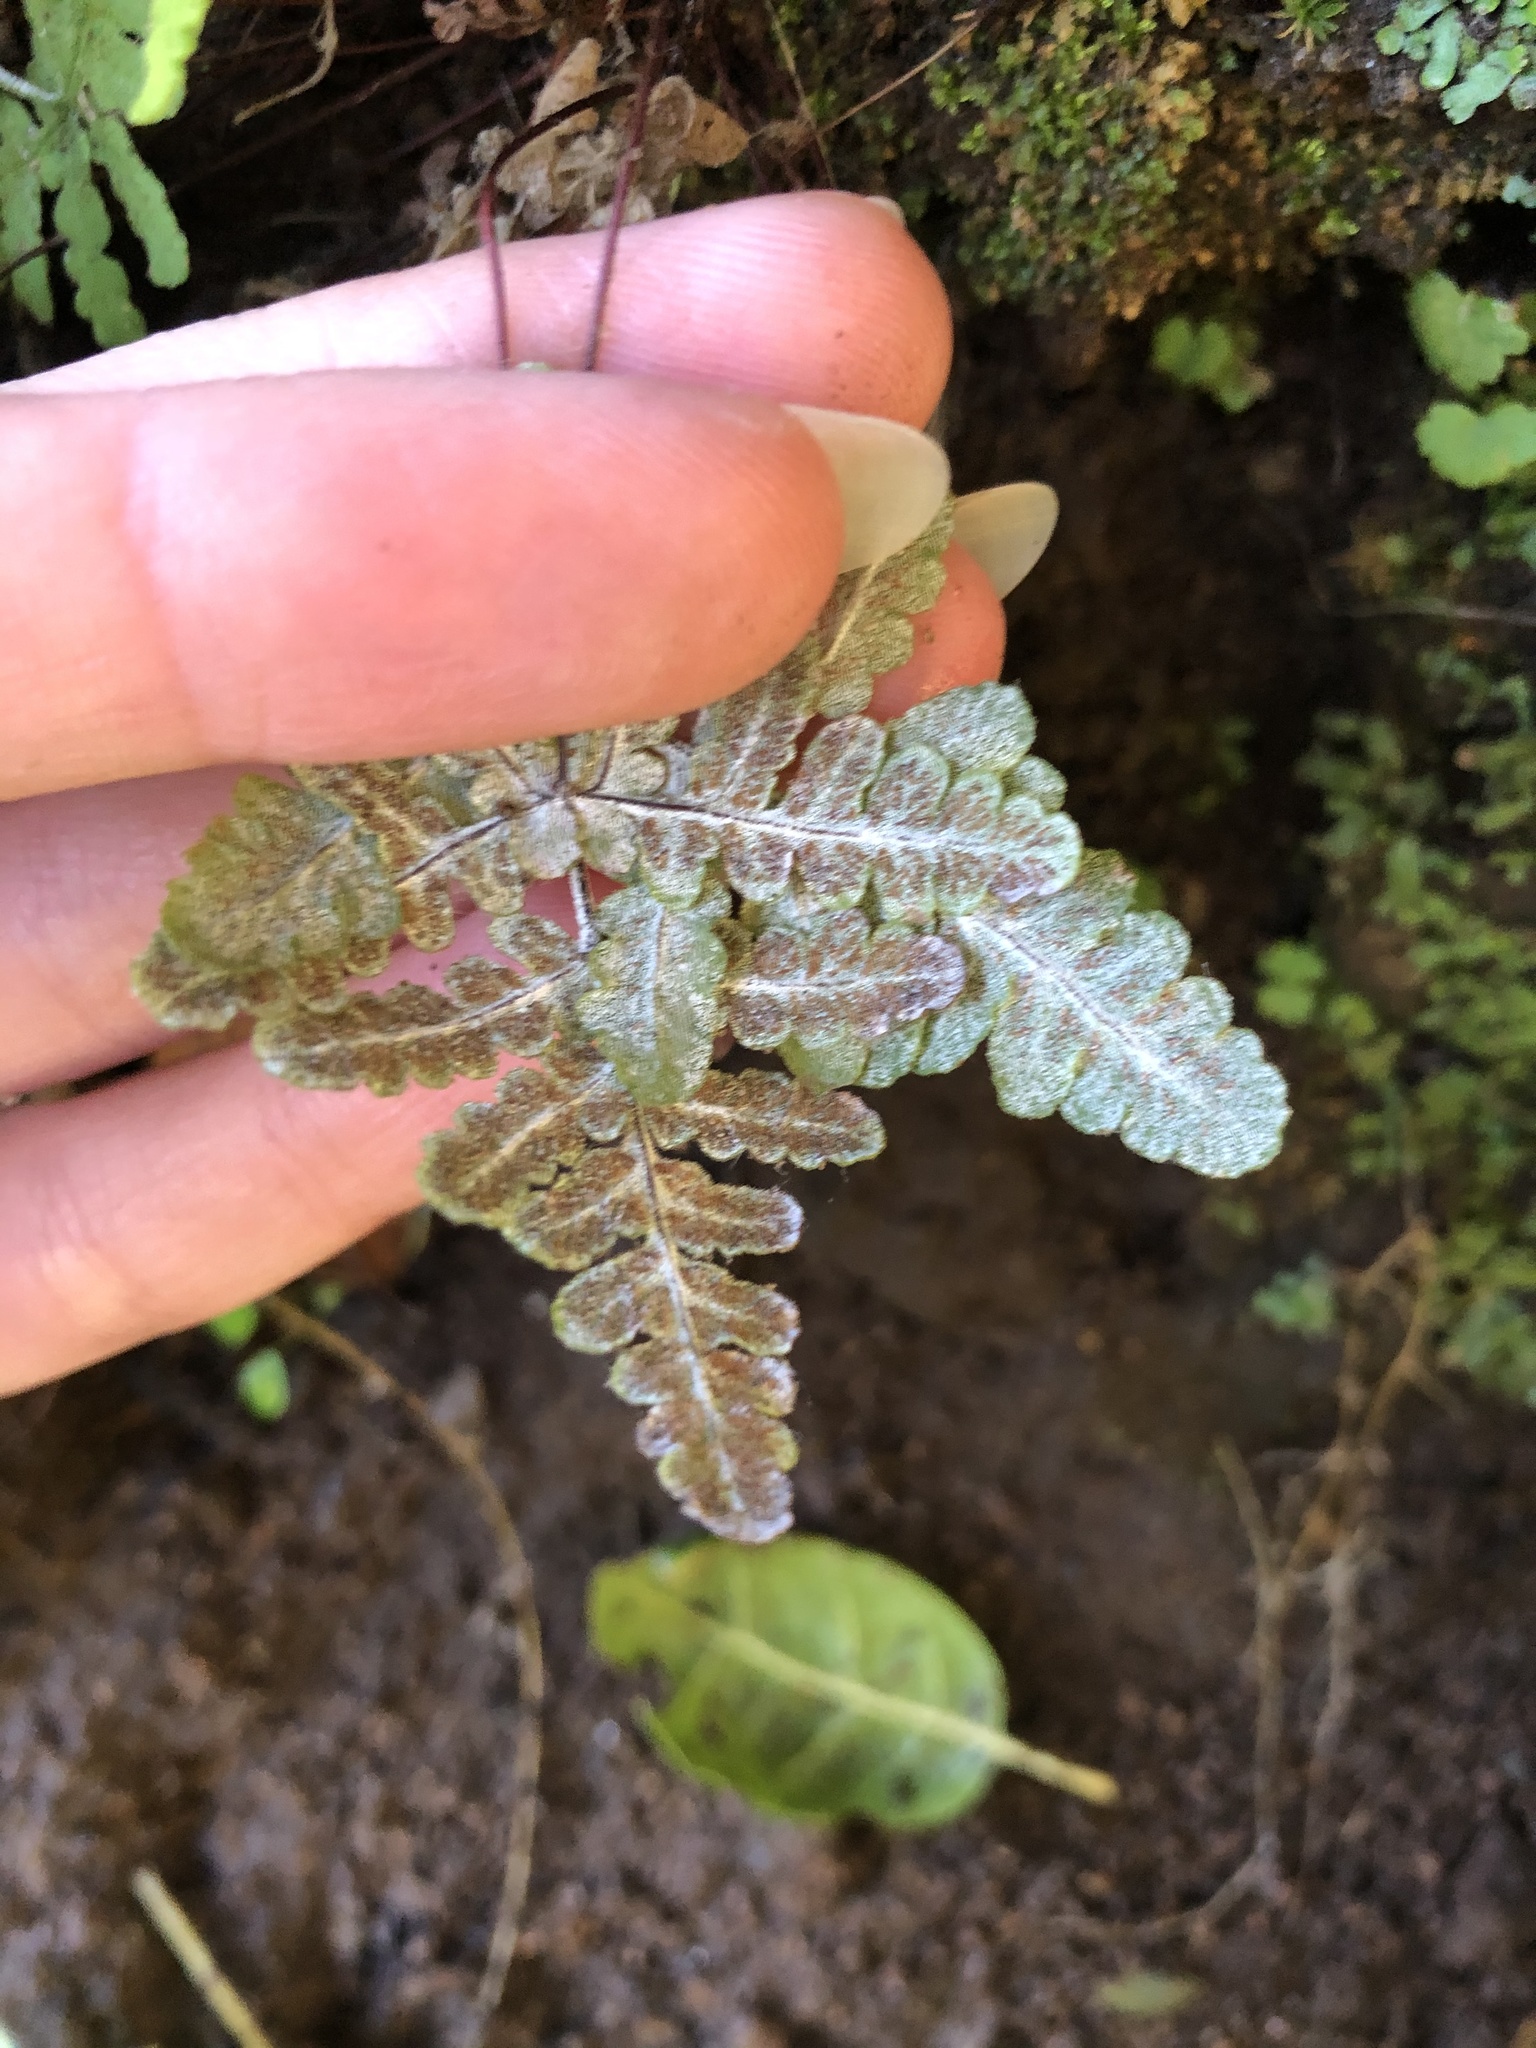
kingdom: Plantae
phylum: Tracheophyta
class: Polypodiopsida
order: Polypodiales
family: Pteridaceae
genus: Pentagramma
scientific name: Pentagramma triangularis
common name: Gold fern
